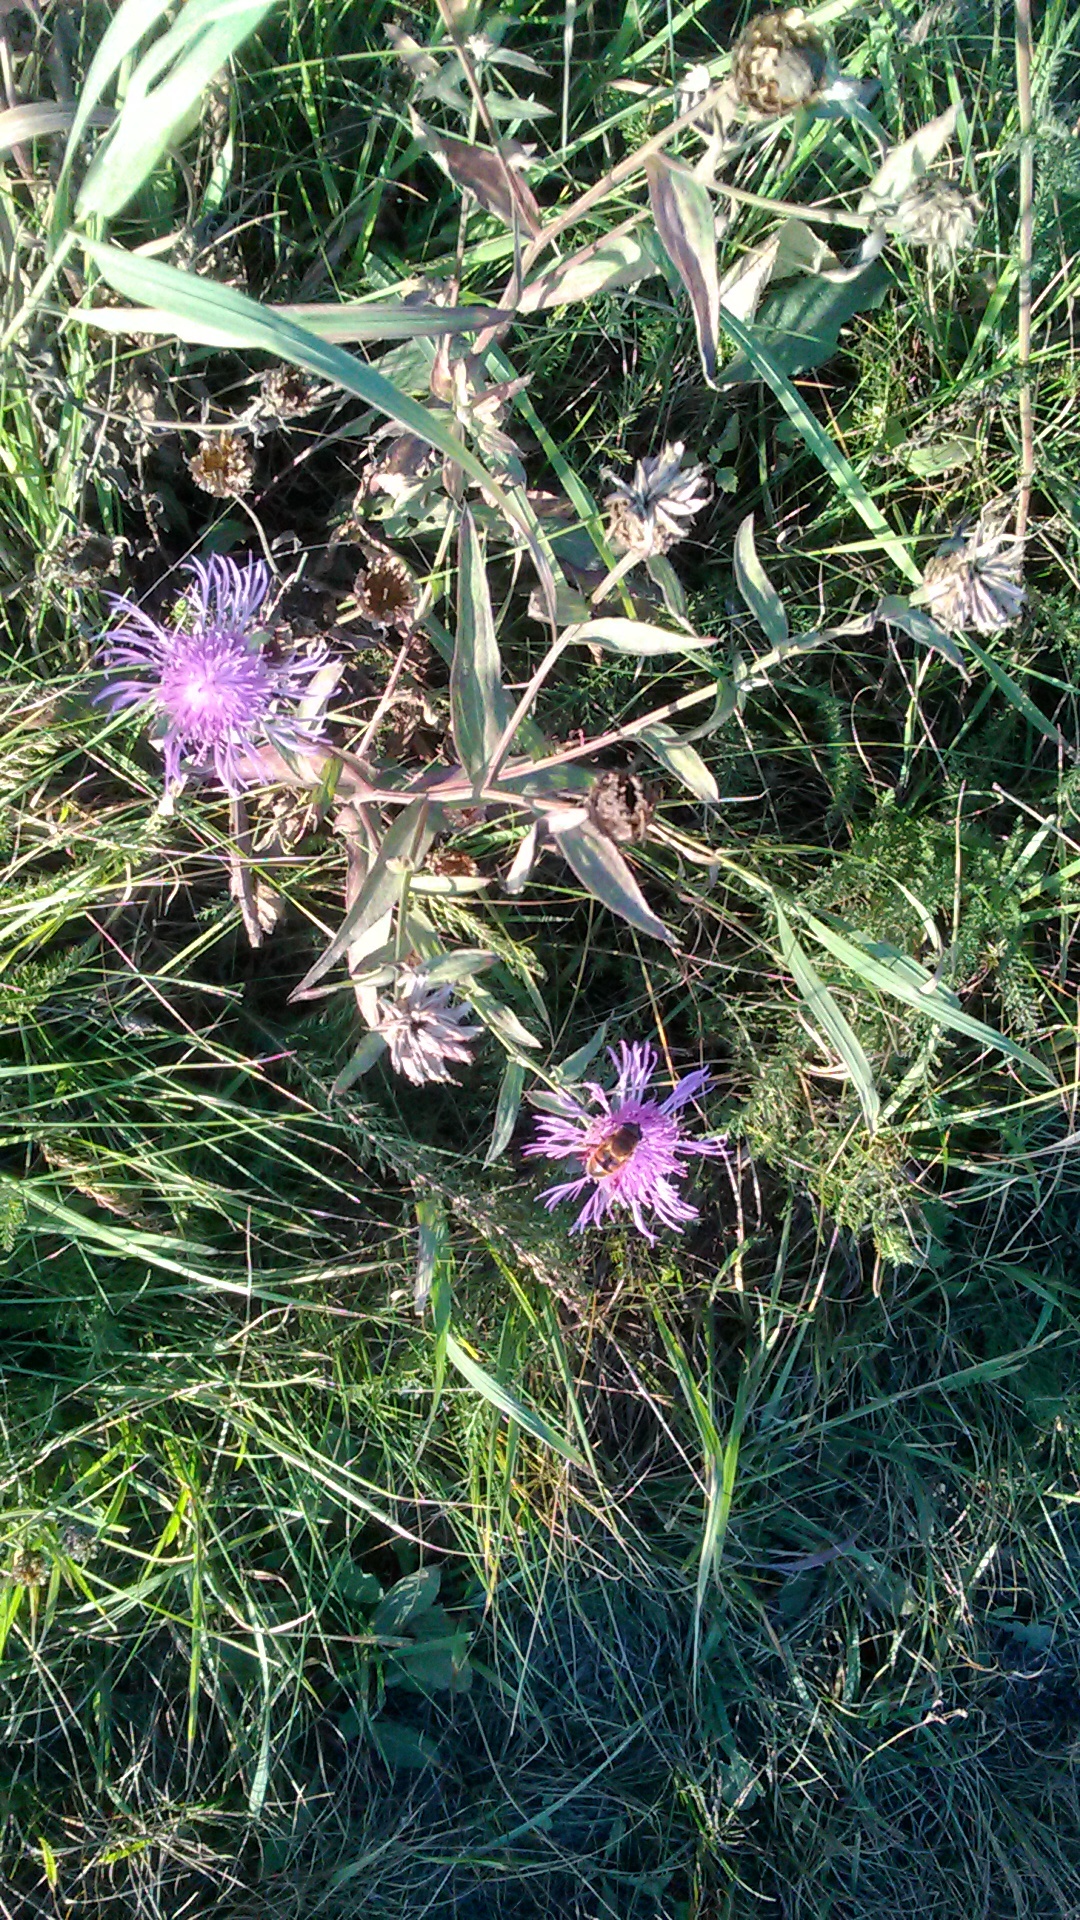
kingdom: Plantae
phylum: Tracheophyta
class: Magnoliopsida
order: Asterales
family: Asteraceae
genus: Centaurea
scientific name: Centaurea jacea
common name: Brown knapweed
